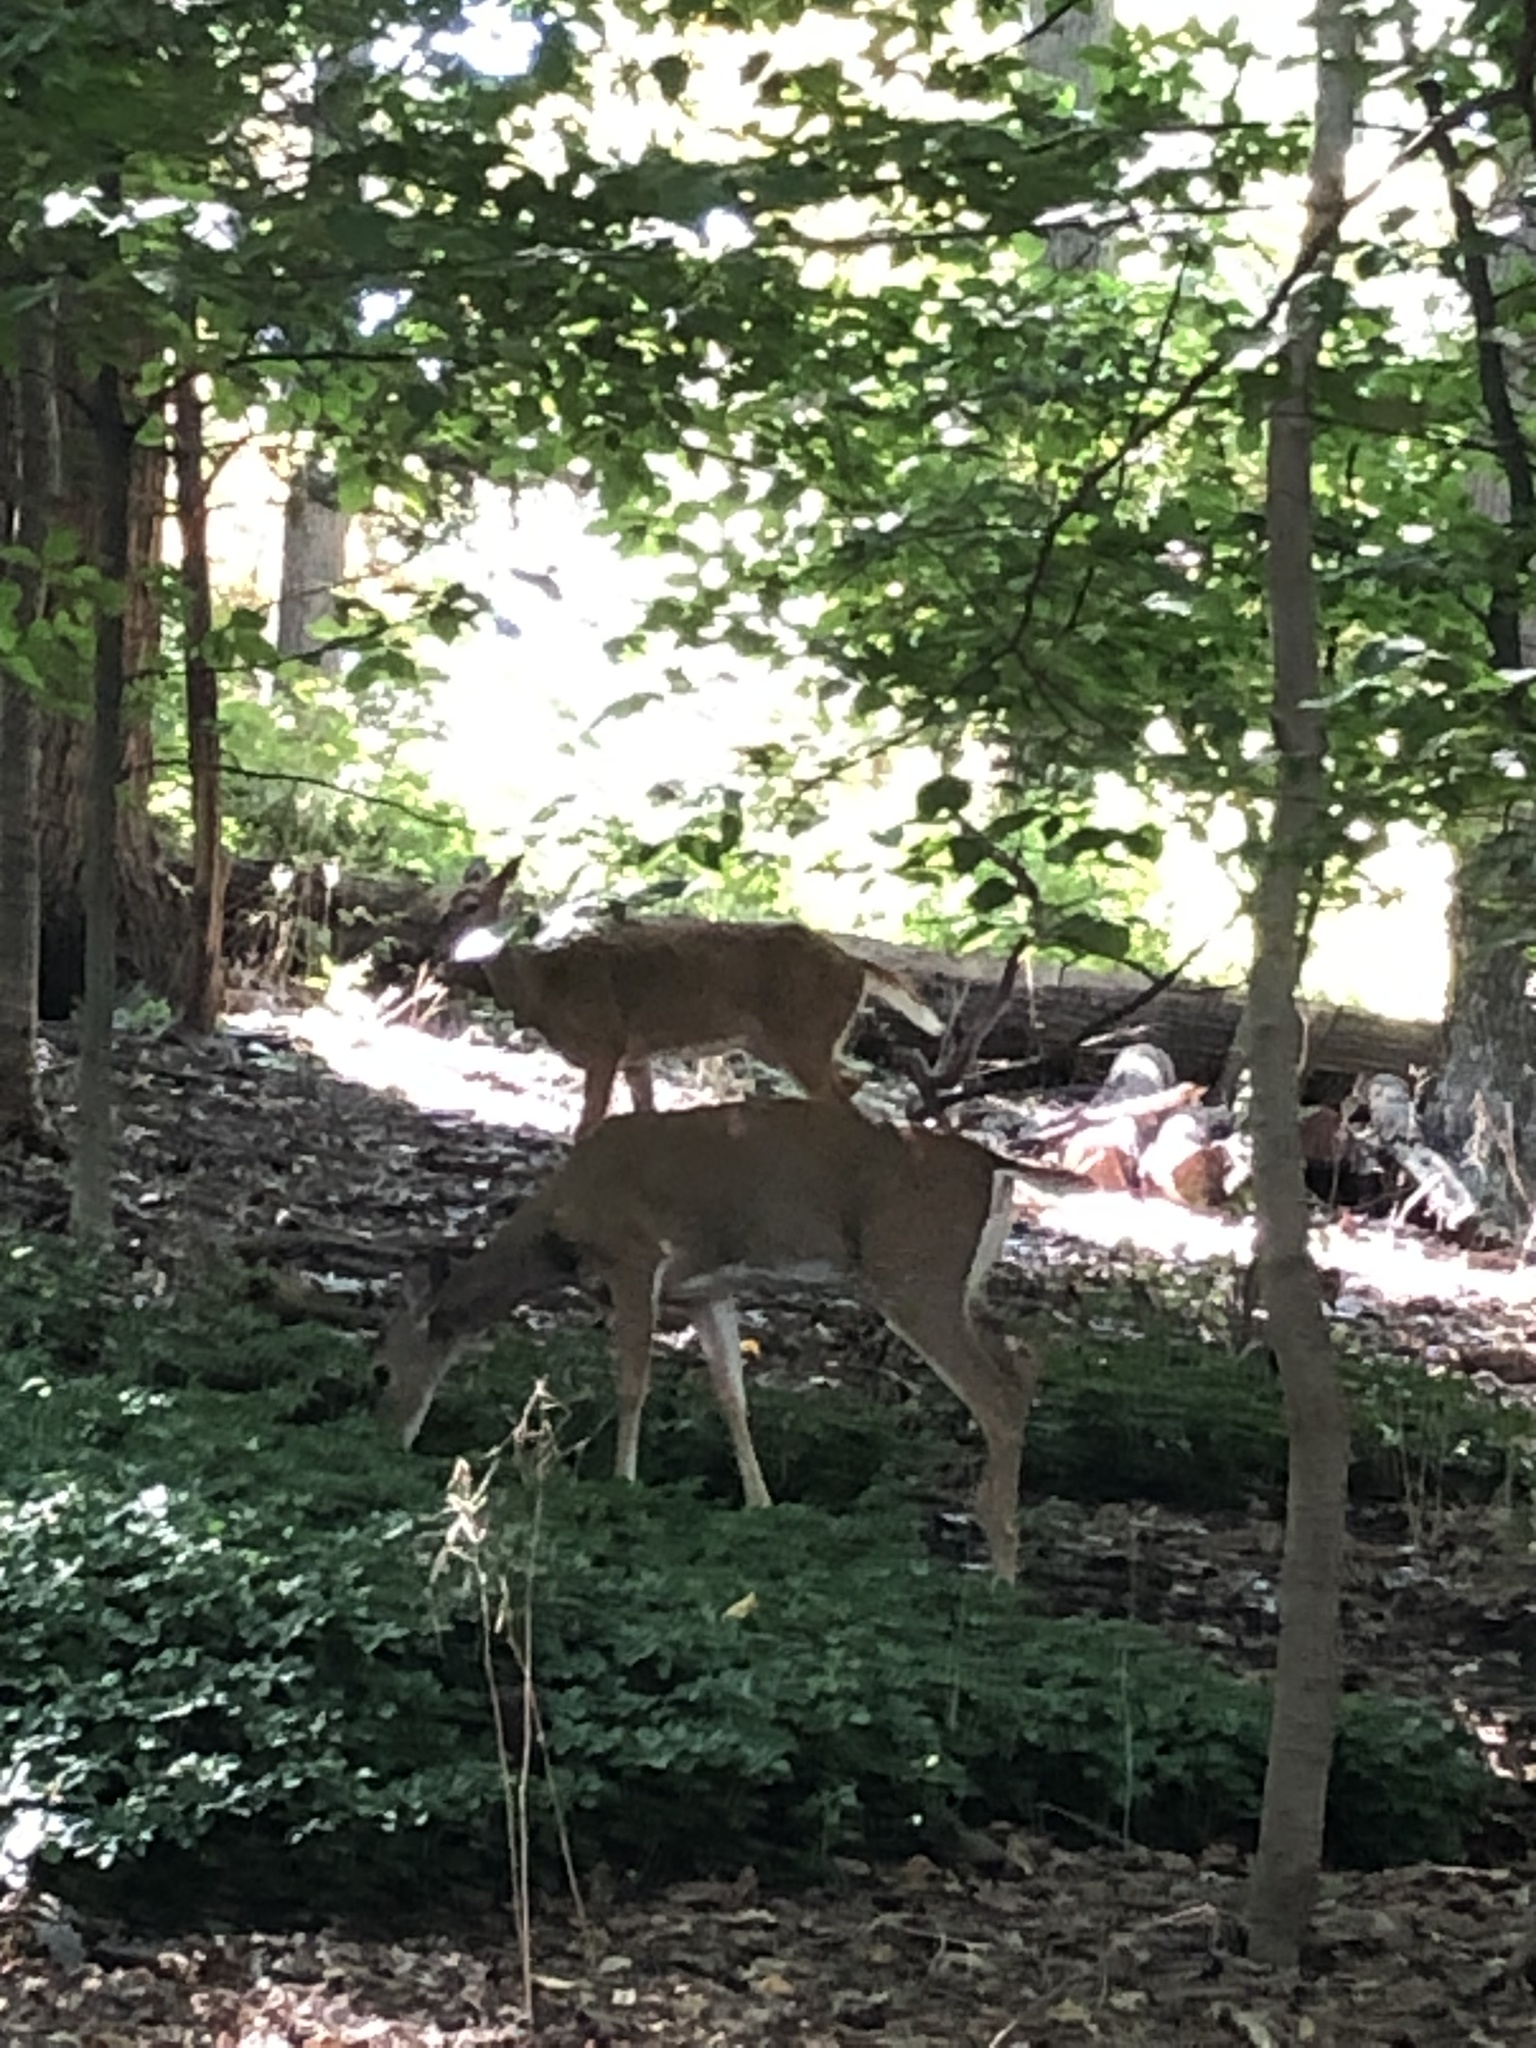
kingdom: Animalia
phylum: Chordata
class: Mammalia
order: Artiodactyla
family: Cervidae
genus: Odocoileus
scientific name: Odocoileus virginianus
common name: White-tailed deer
